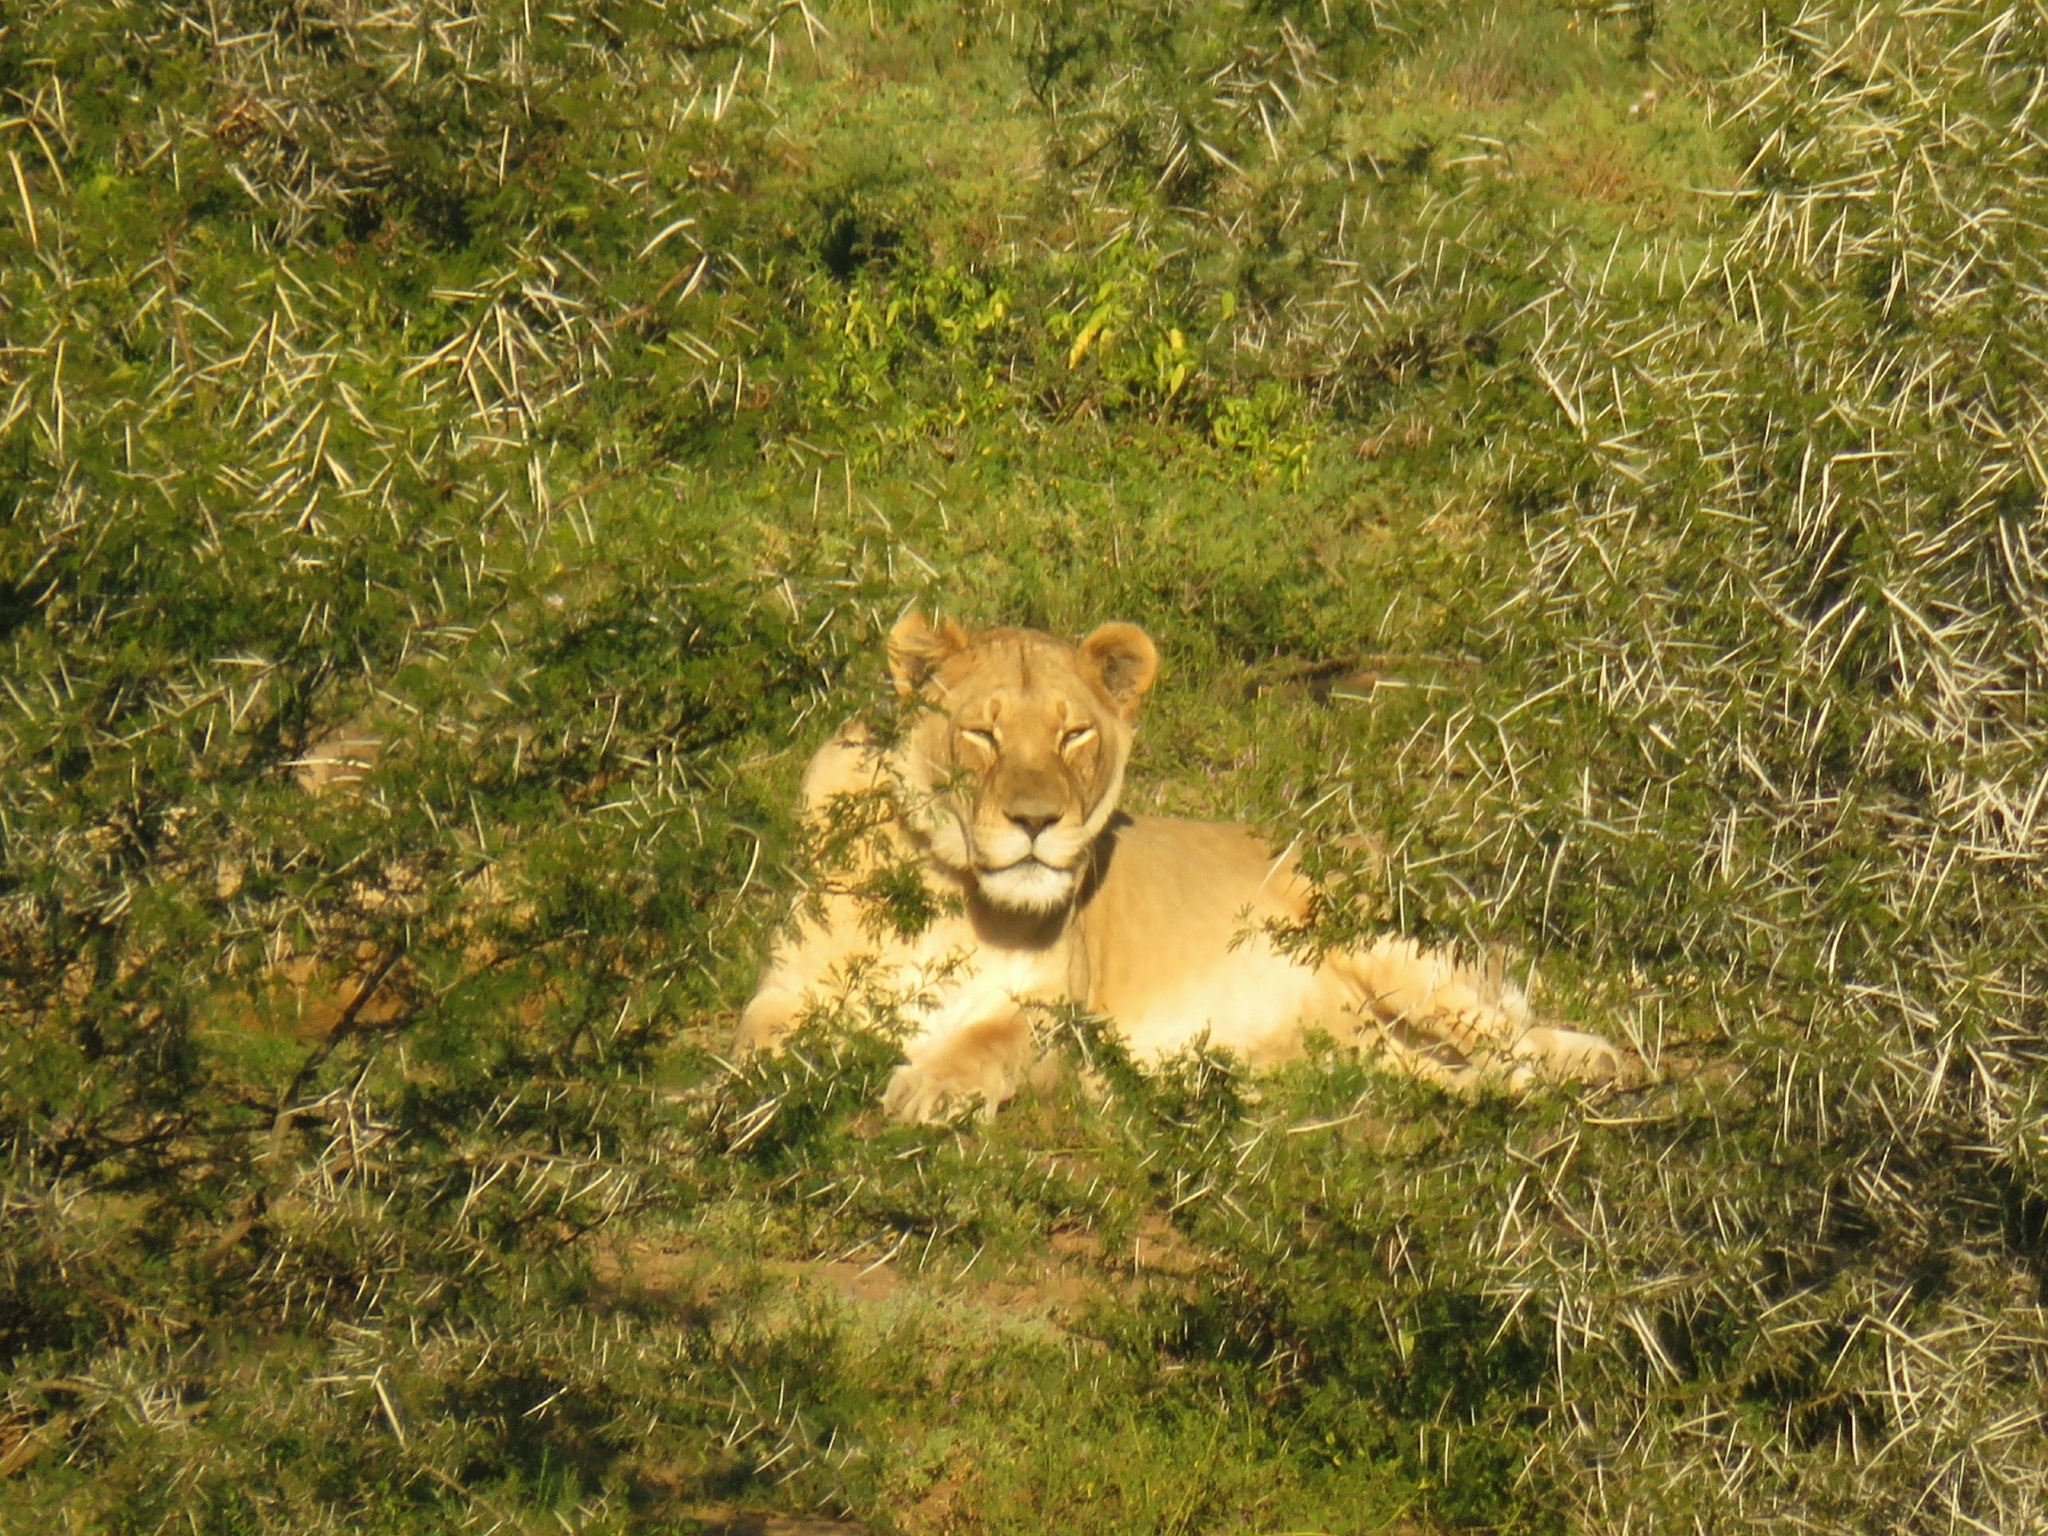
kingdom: Animalia
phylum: Chordata
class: Mammalia
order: Carnivora
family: Felidae
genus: Panthera
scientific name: Panthera leo
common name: Lion
